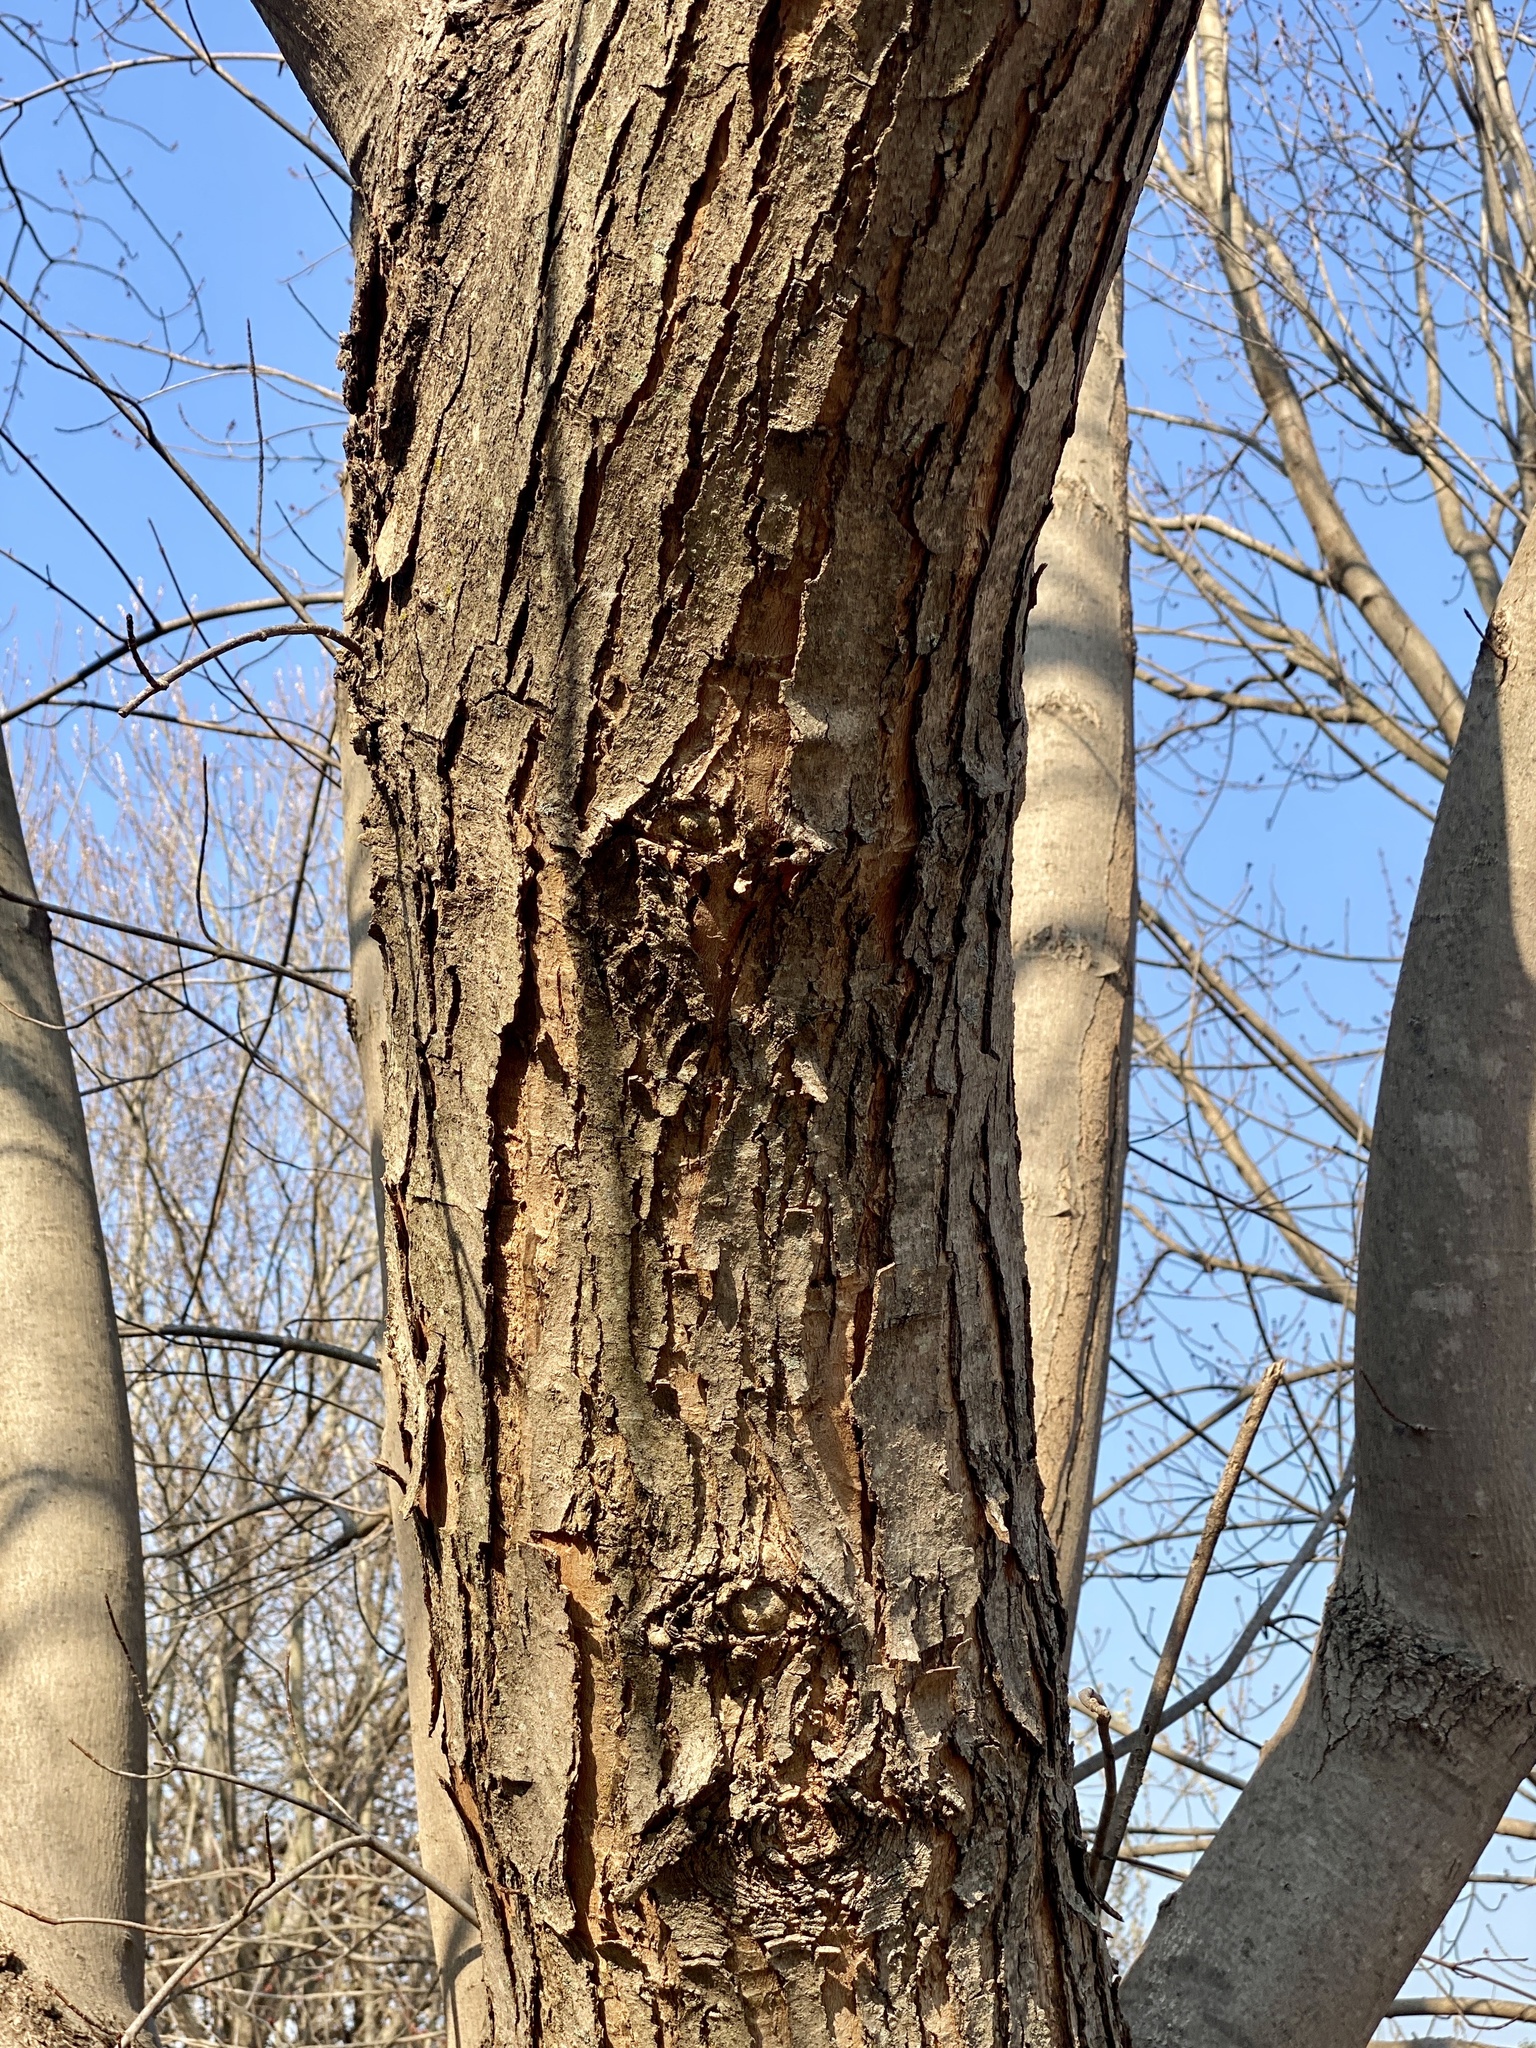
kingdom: Plantae
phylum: Tracheophyta
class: Magnoliopsida
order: Sapindales
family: Sapindaceae
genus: Acer
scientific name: Acer saccharinum
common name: Silver maple
